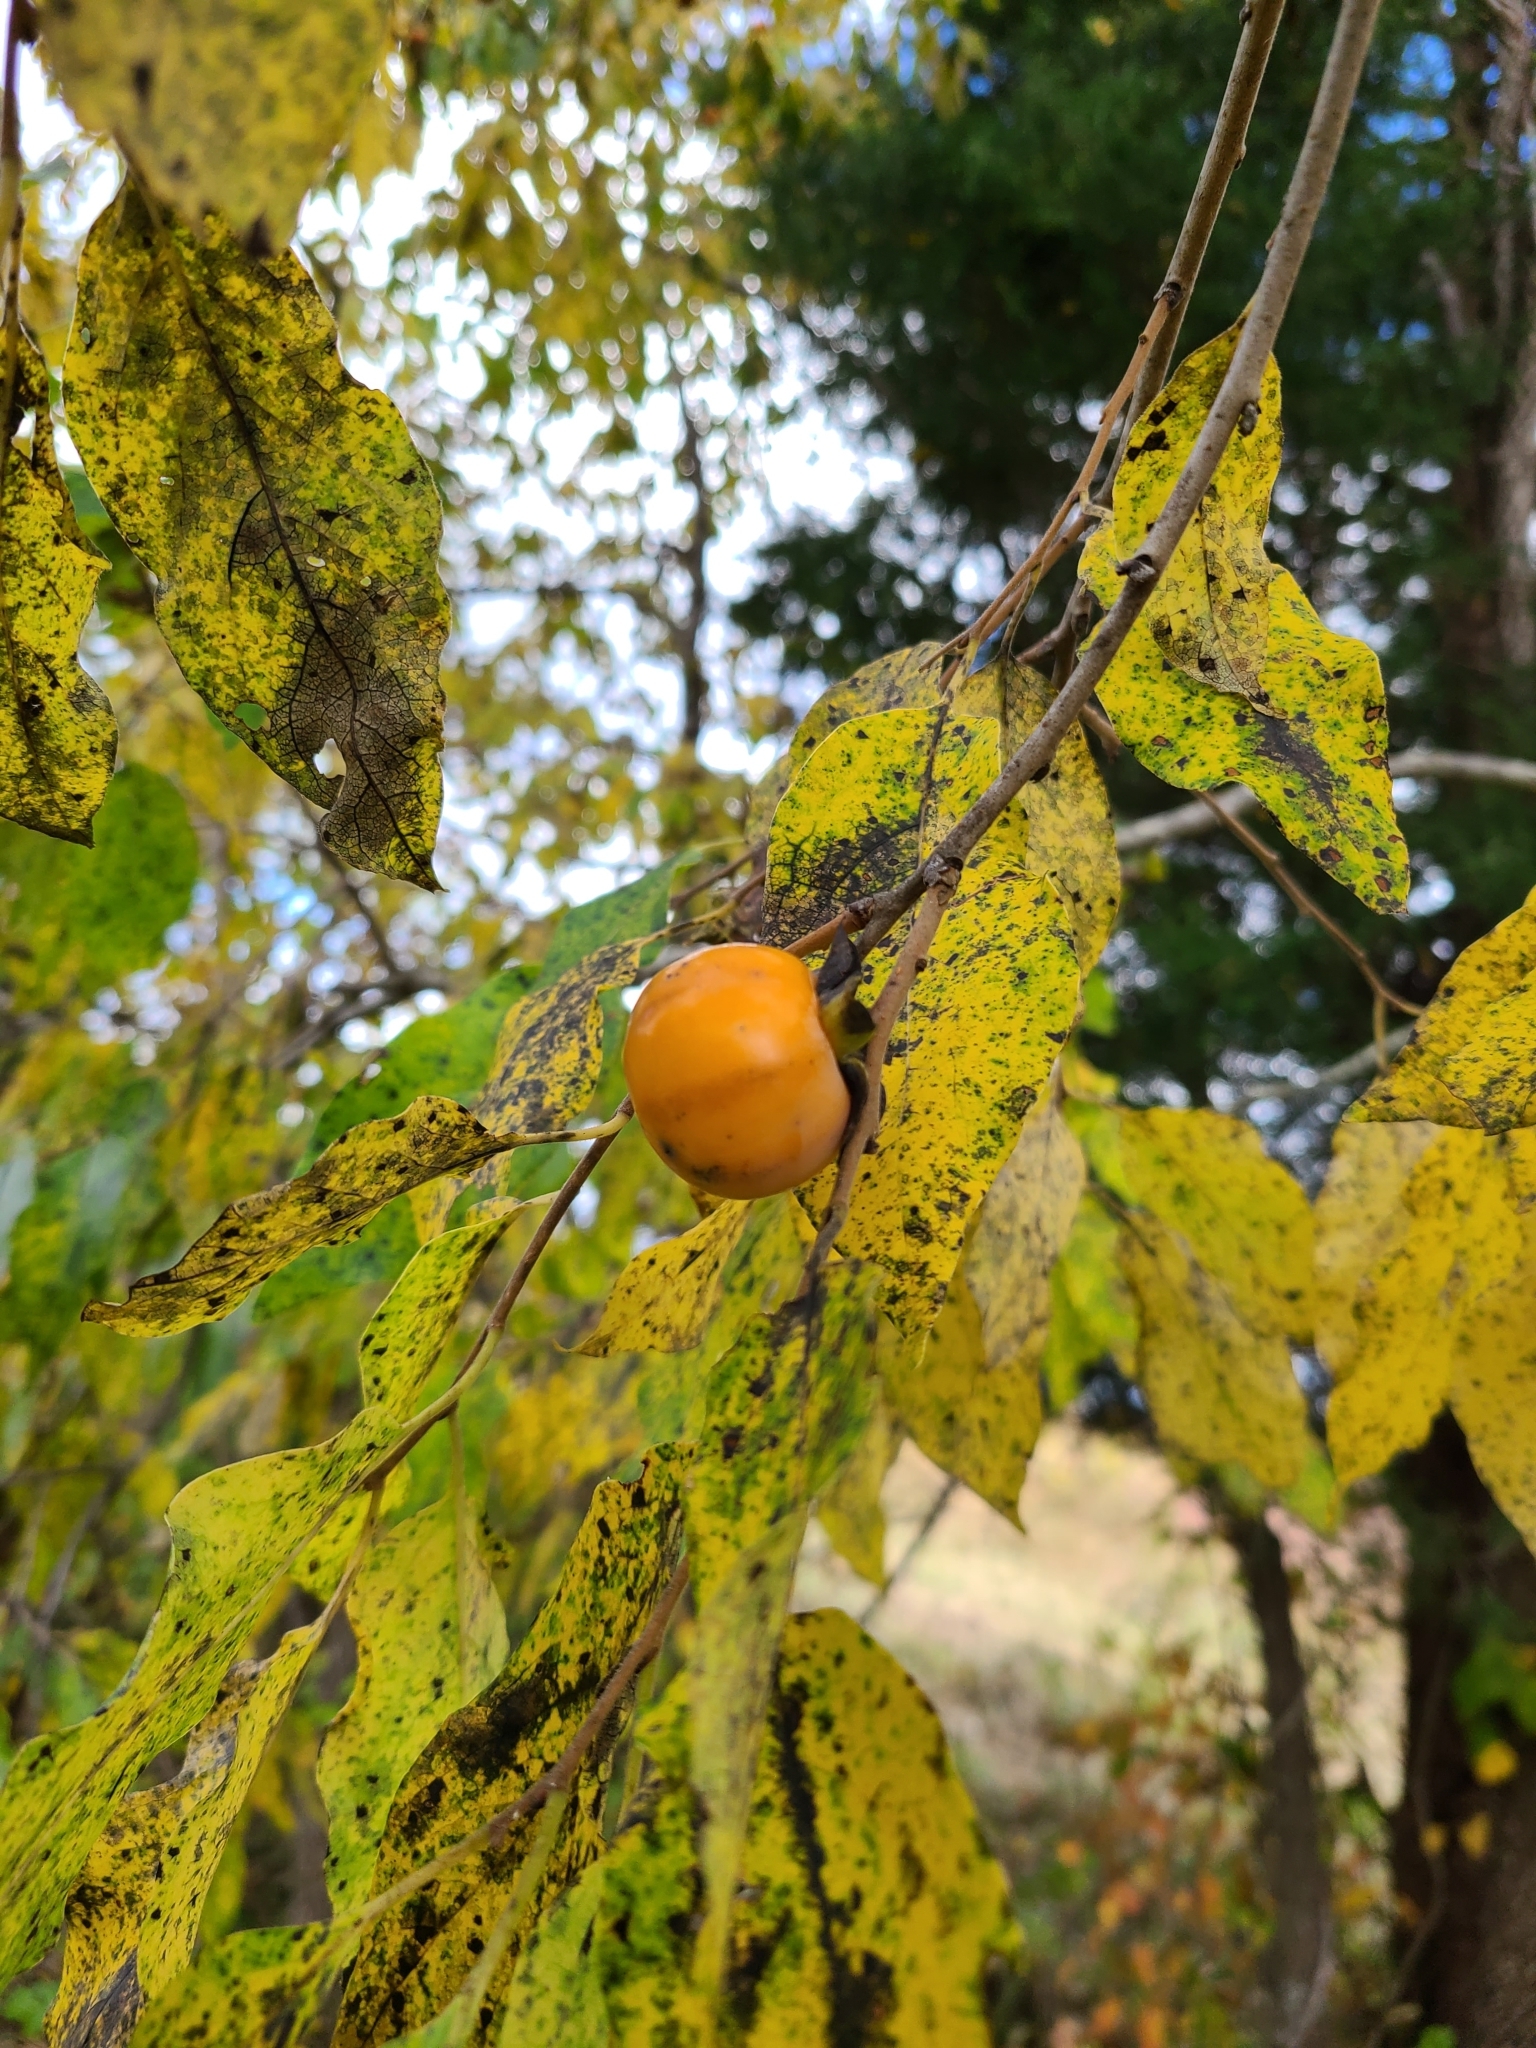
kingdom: Plantae
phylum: Tracheophyta
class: Magnoliopsida
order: Ericales
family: Ebenaceae
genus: Diospyros
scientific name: Diospyros virginiana
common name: Persimmon
